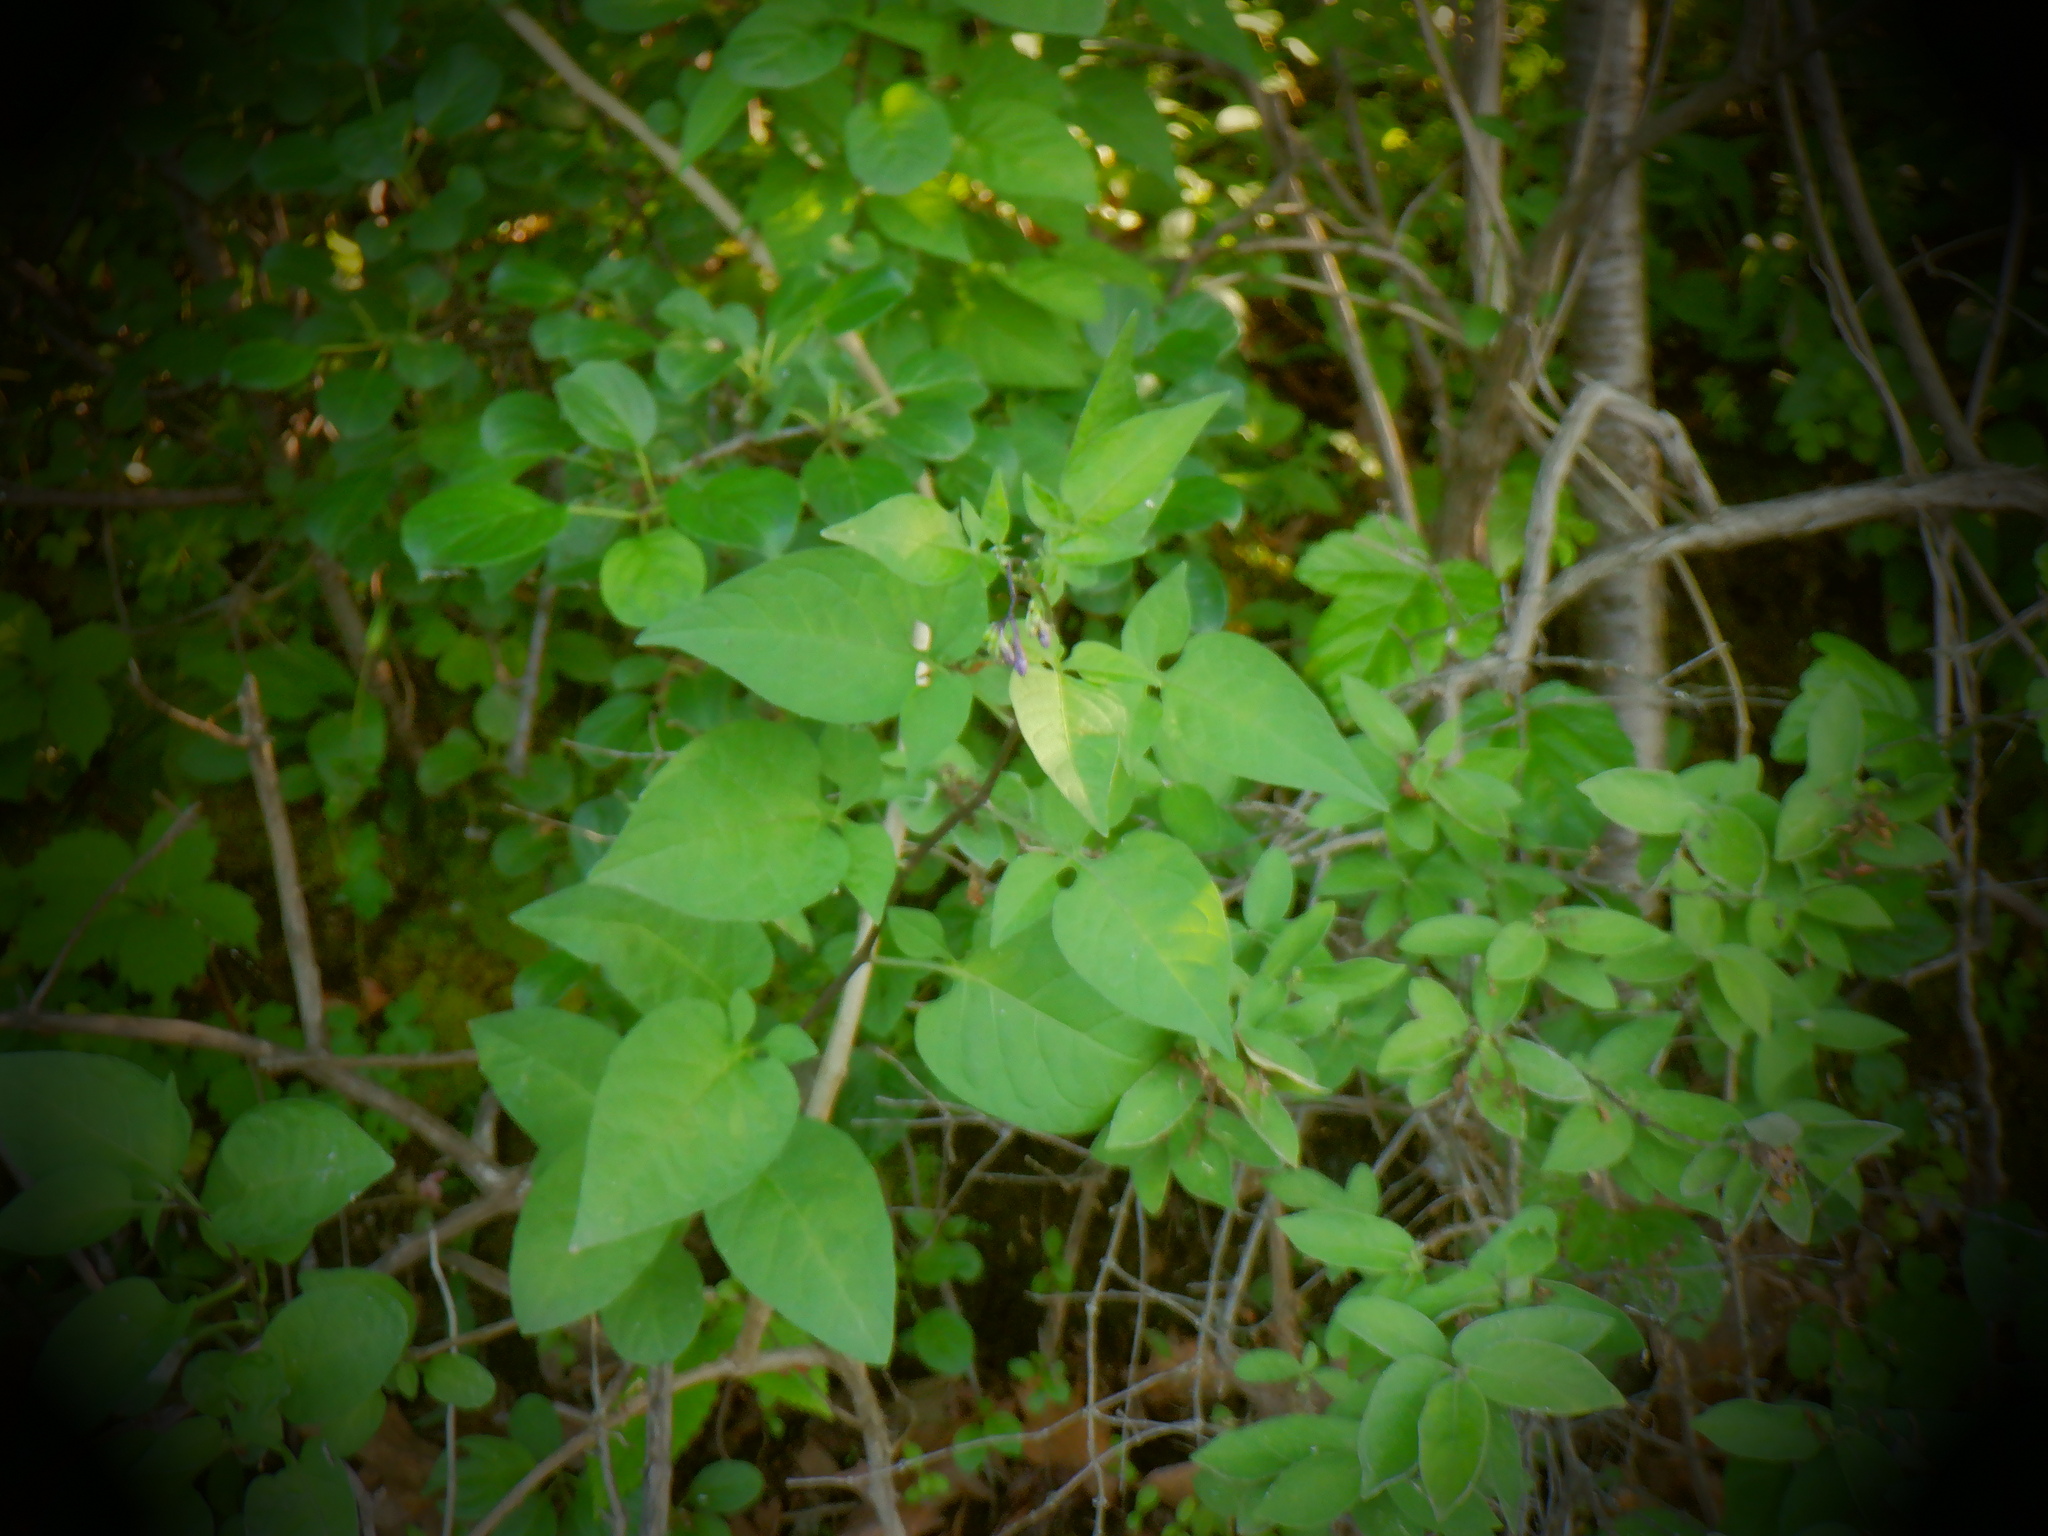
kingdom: Plantae
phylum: Tracheophyta
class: Magnoliopsida
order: Solanales
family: Solanaceae
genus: Solanum
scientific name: Solanum dulcamara
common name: Climbing nightshade
